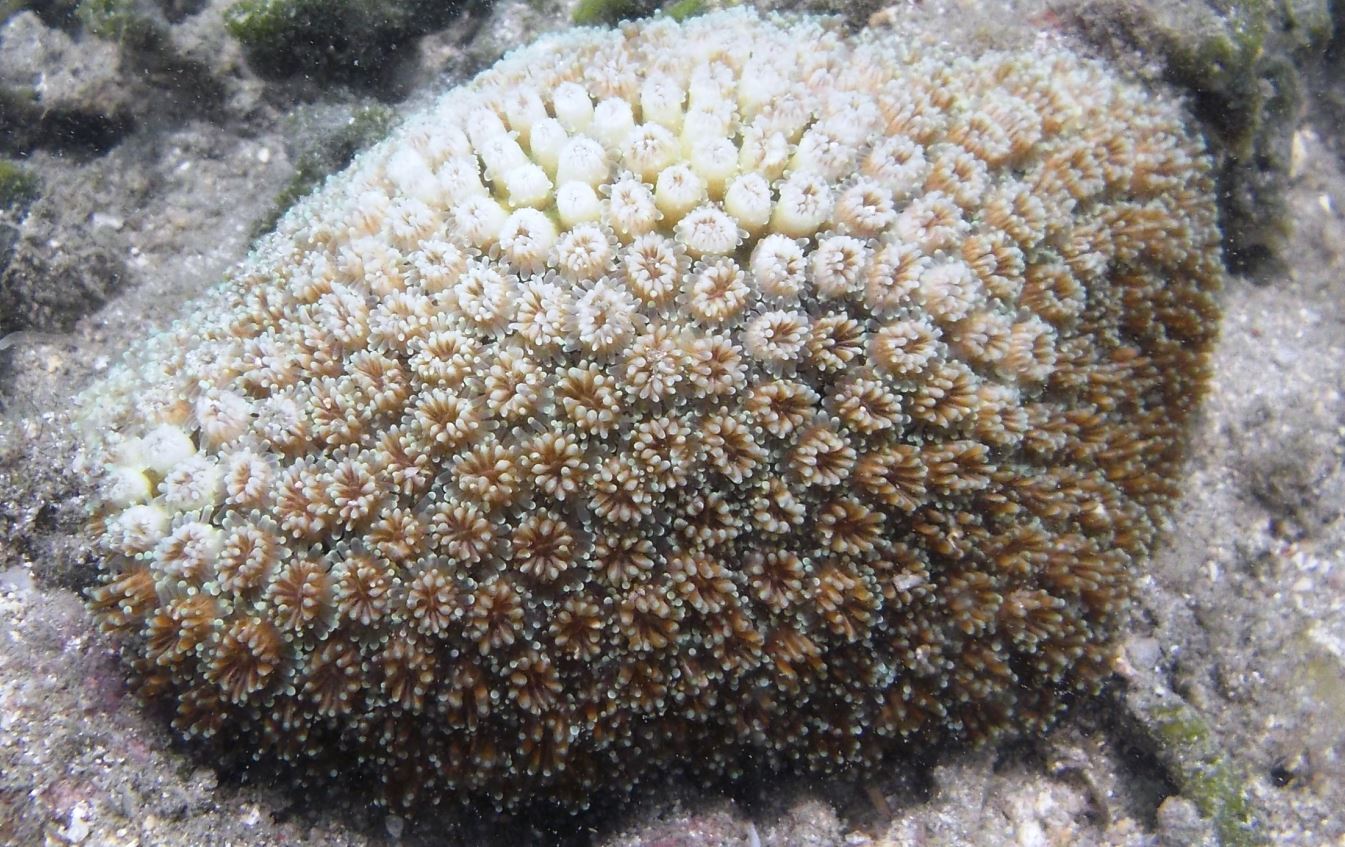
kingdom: Animalia
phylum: Cnidaria
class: Anthozoa
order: Scleractinia
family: Euphylliidae
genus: Galaxea
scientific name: Galaxea fascicularis
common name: Octopus coral
